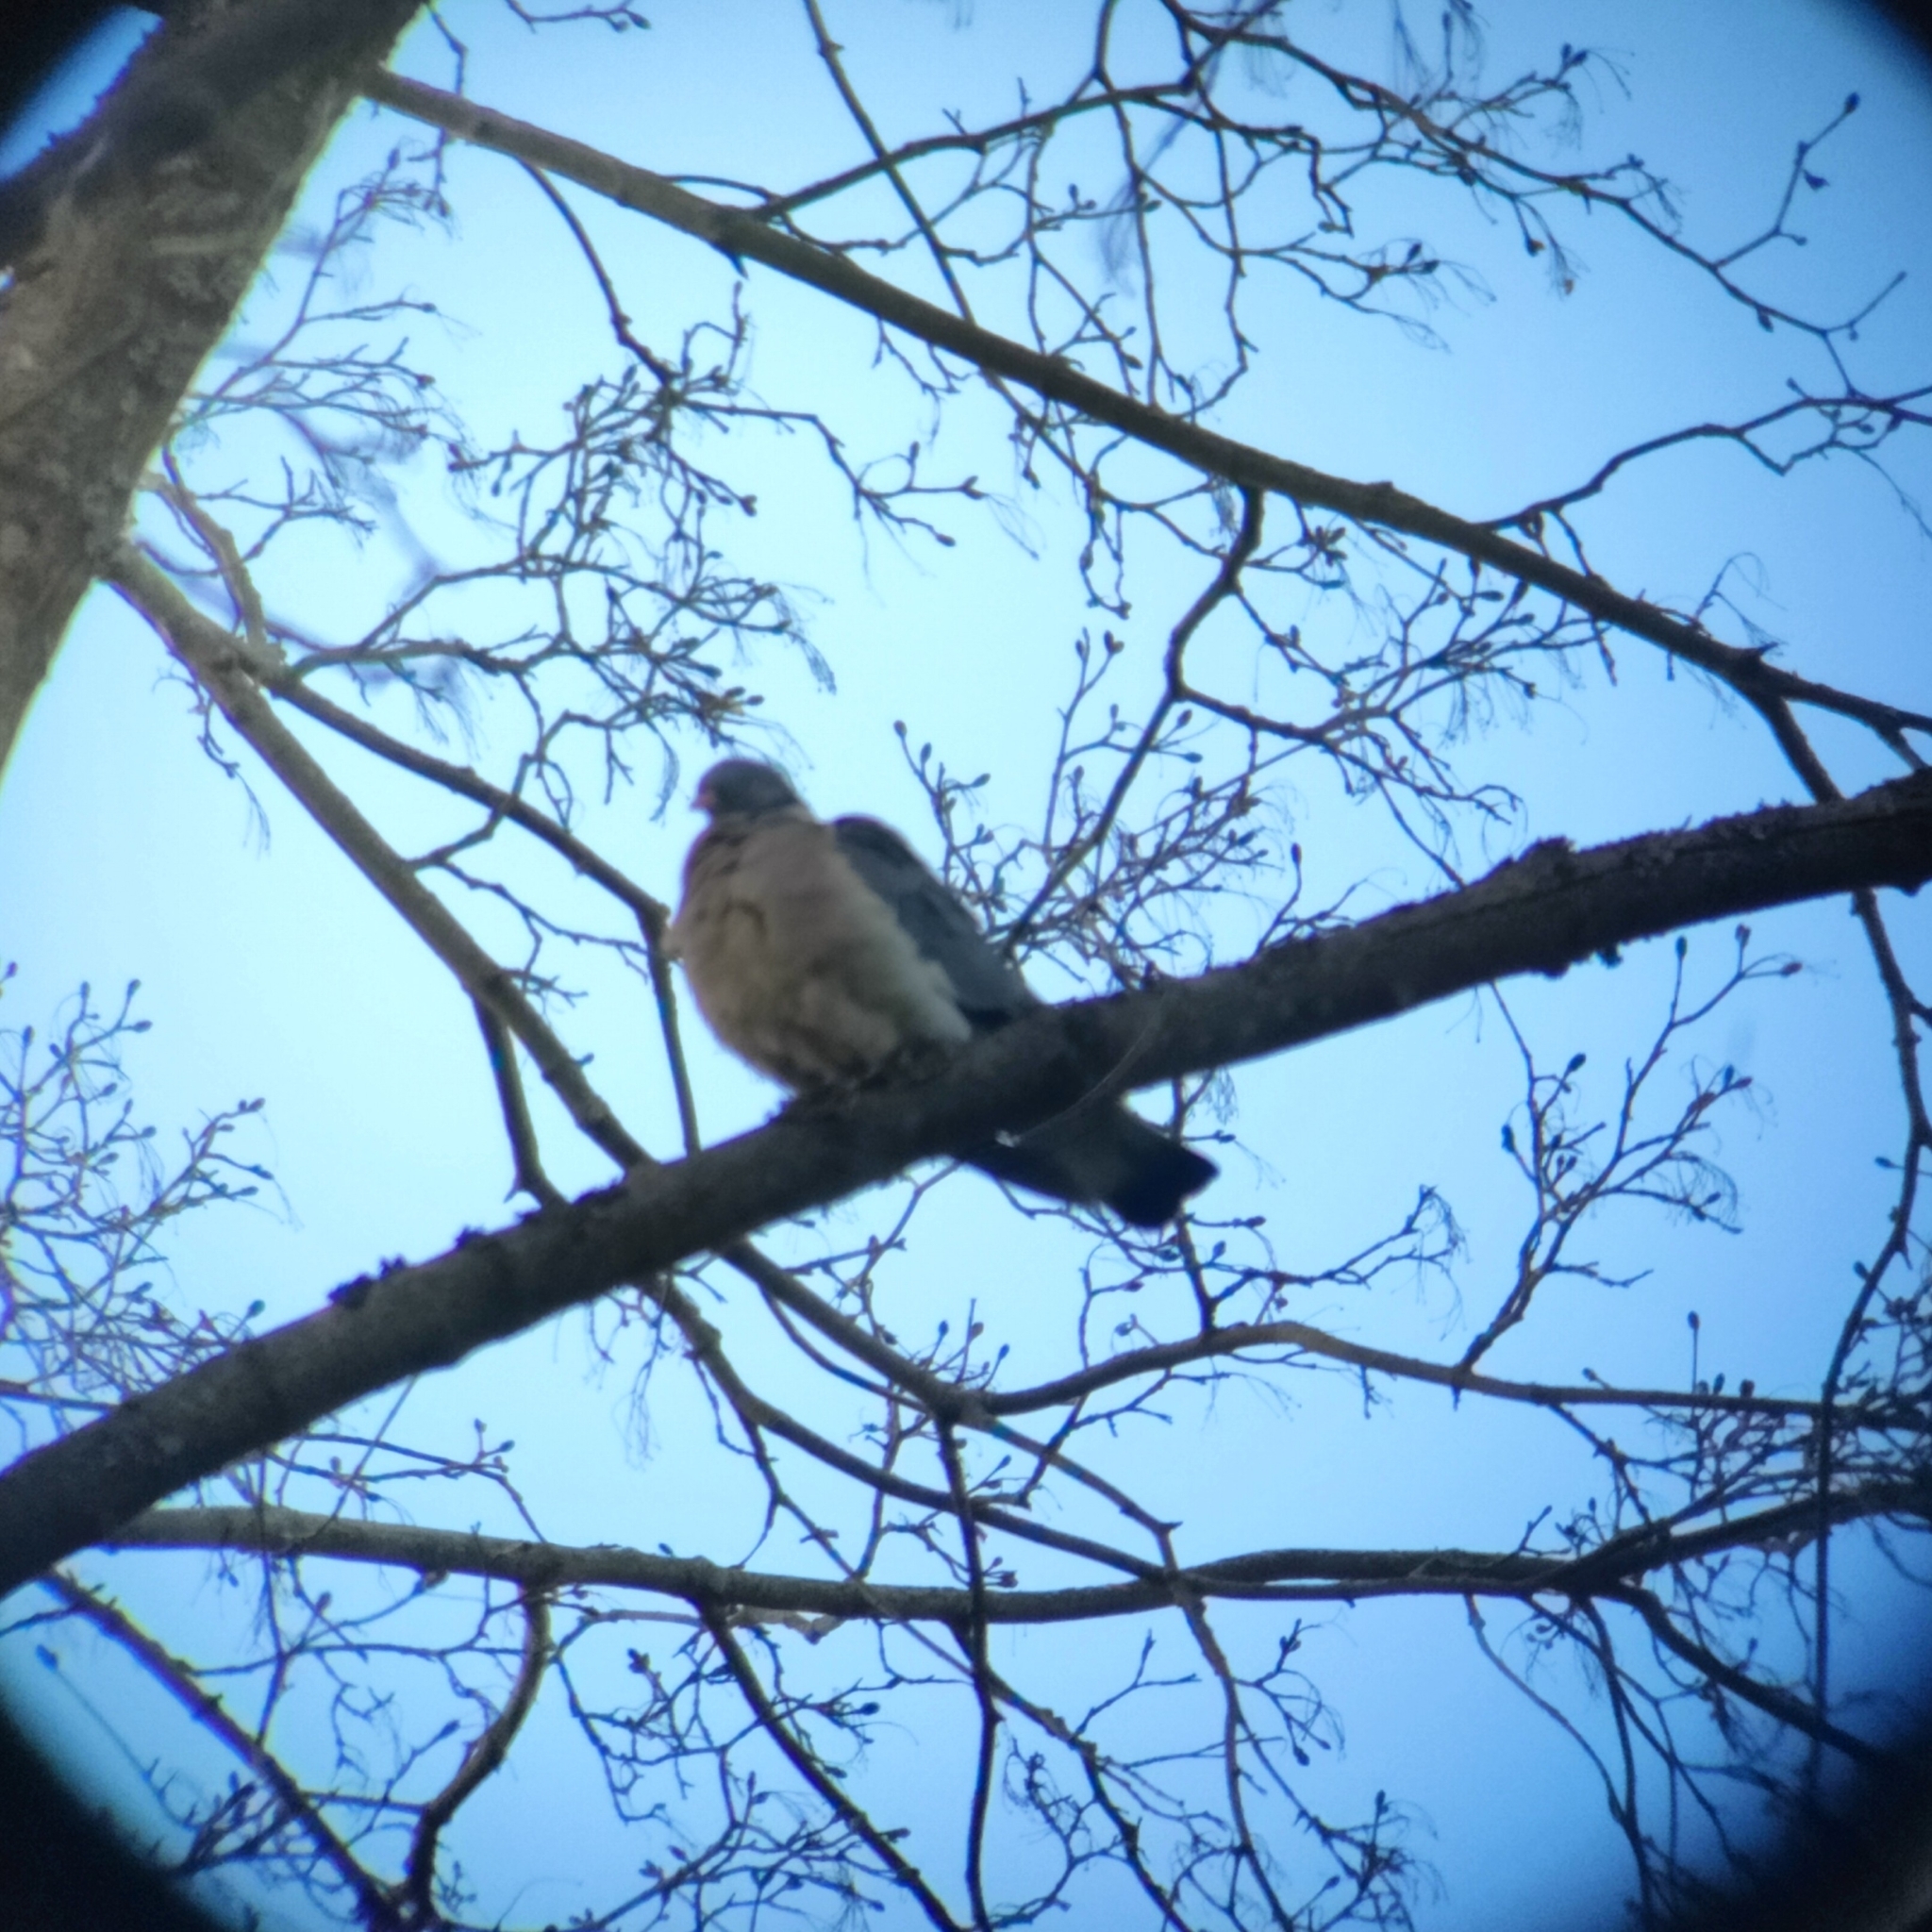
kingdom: Animalia
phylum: Chordata
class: Aves
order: Columbiformes
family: Columbidae
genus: Columba
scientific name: Columba palumbus
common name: Common wood pigeon
